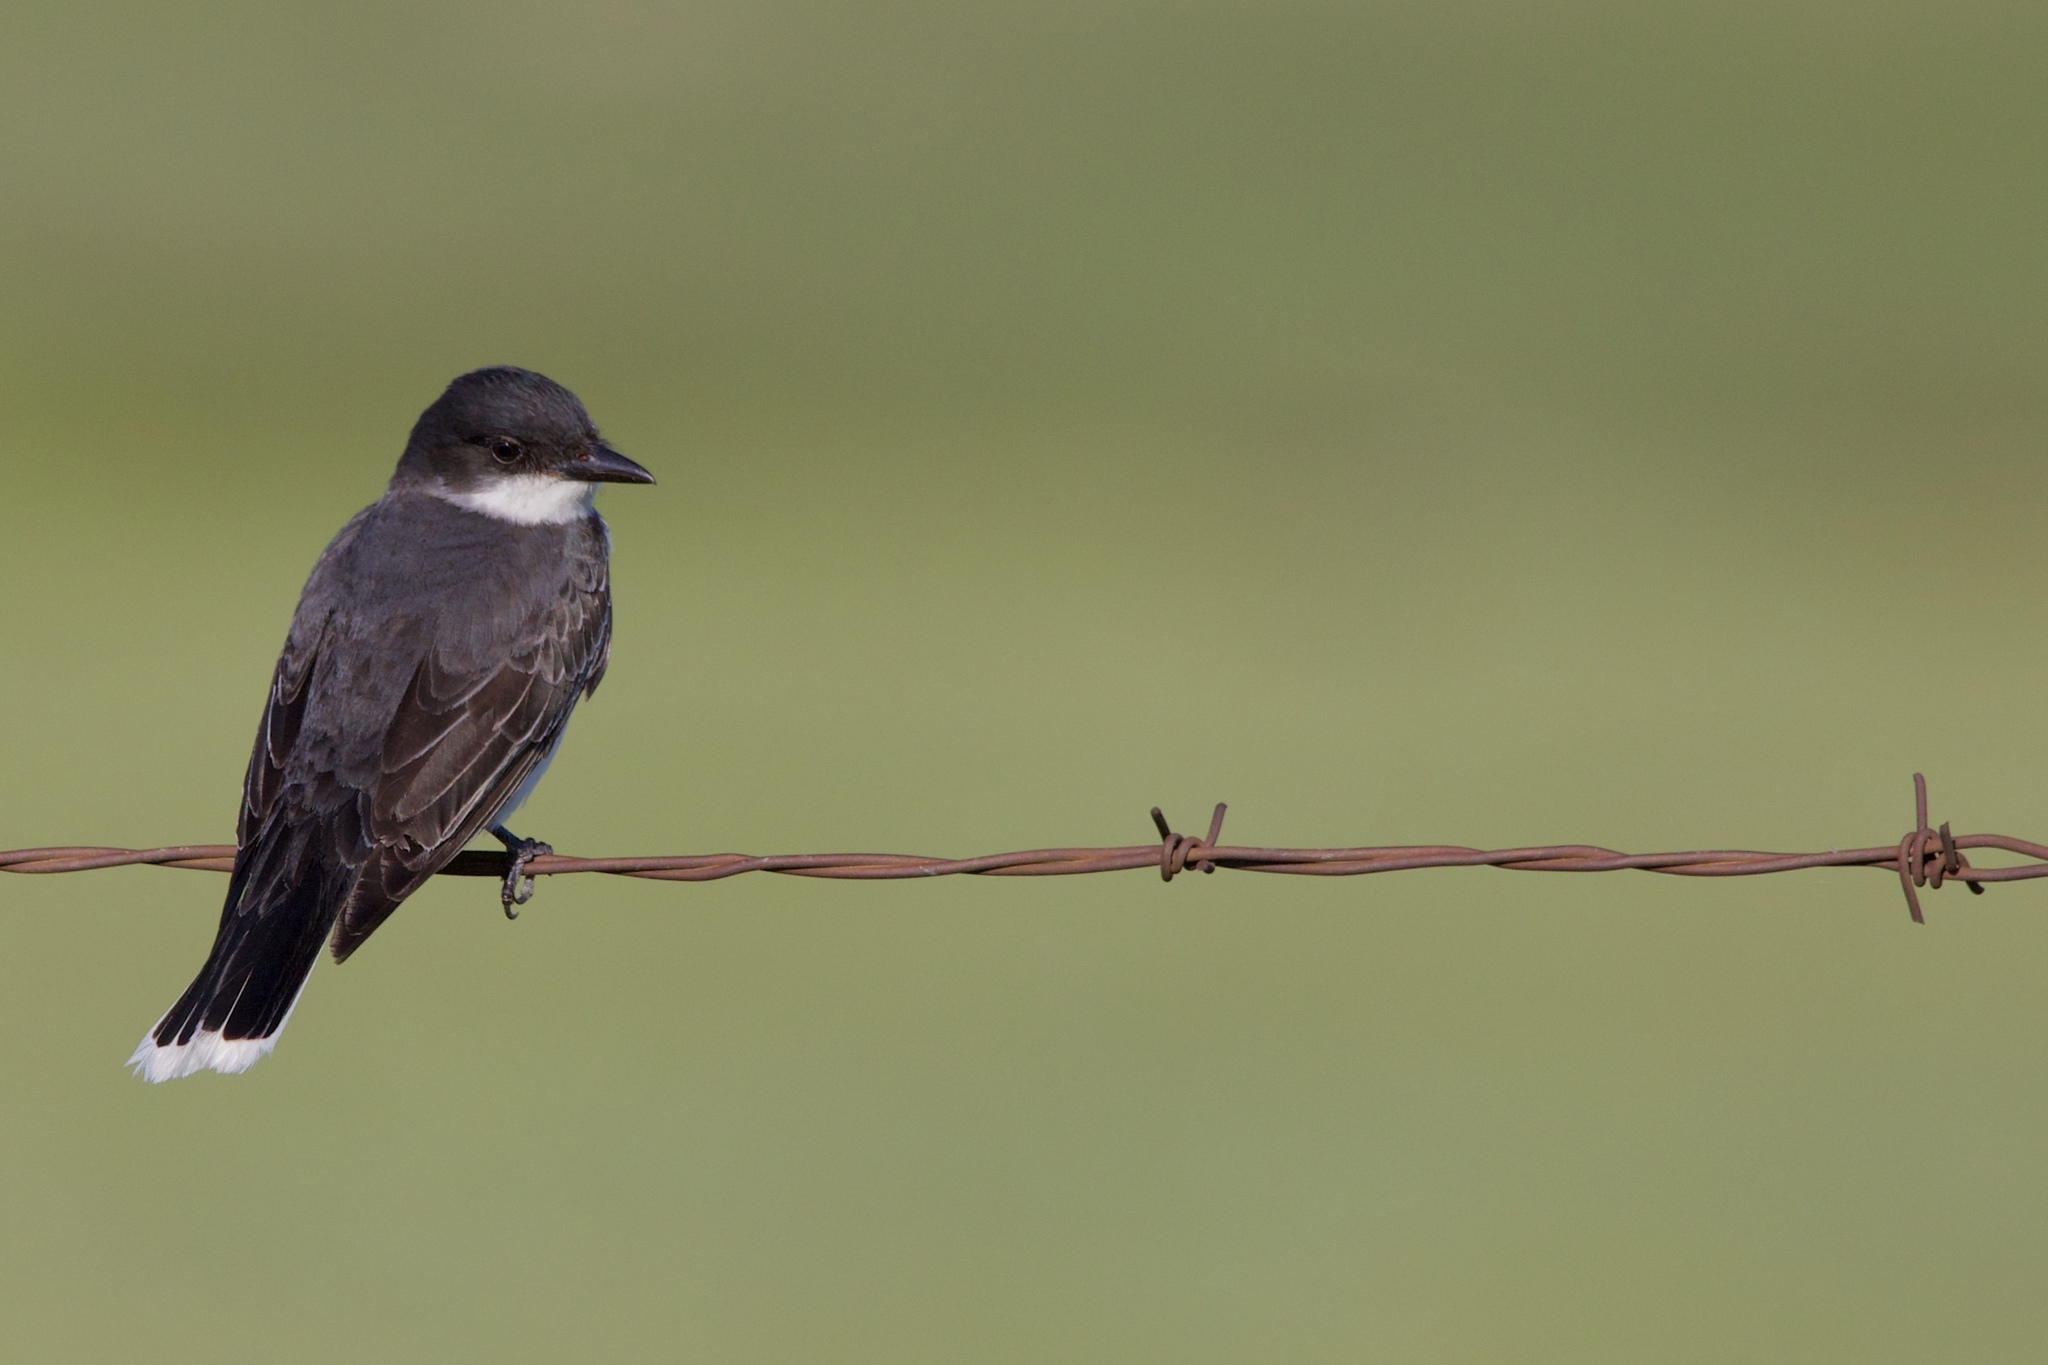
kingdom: Animalia
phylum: Chordata
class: Aves
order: Passeriformes
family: Tyrannidae
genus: Tyrannus
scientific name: Tyrannus tyrannus
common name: Eastern kingbird
